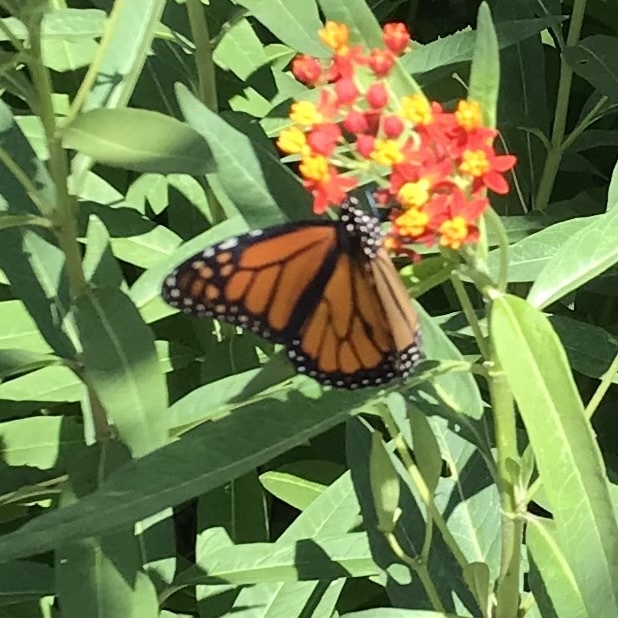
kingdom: Animalia
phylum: Arthropoda
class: Insecta
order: Lepidoptera
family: Nymphalidae
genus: Danaus
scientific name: Danaus plexippus
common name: Monarch
